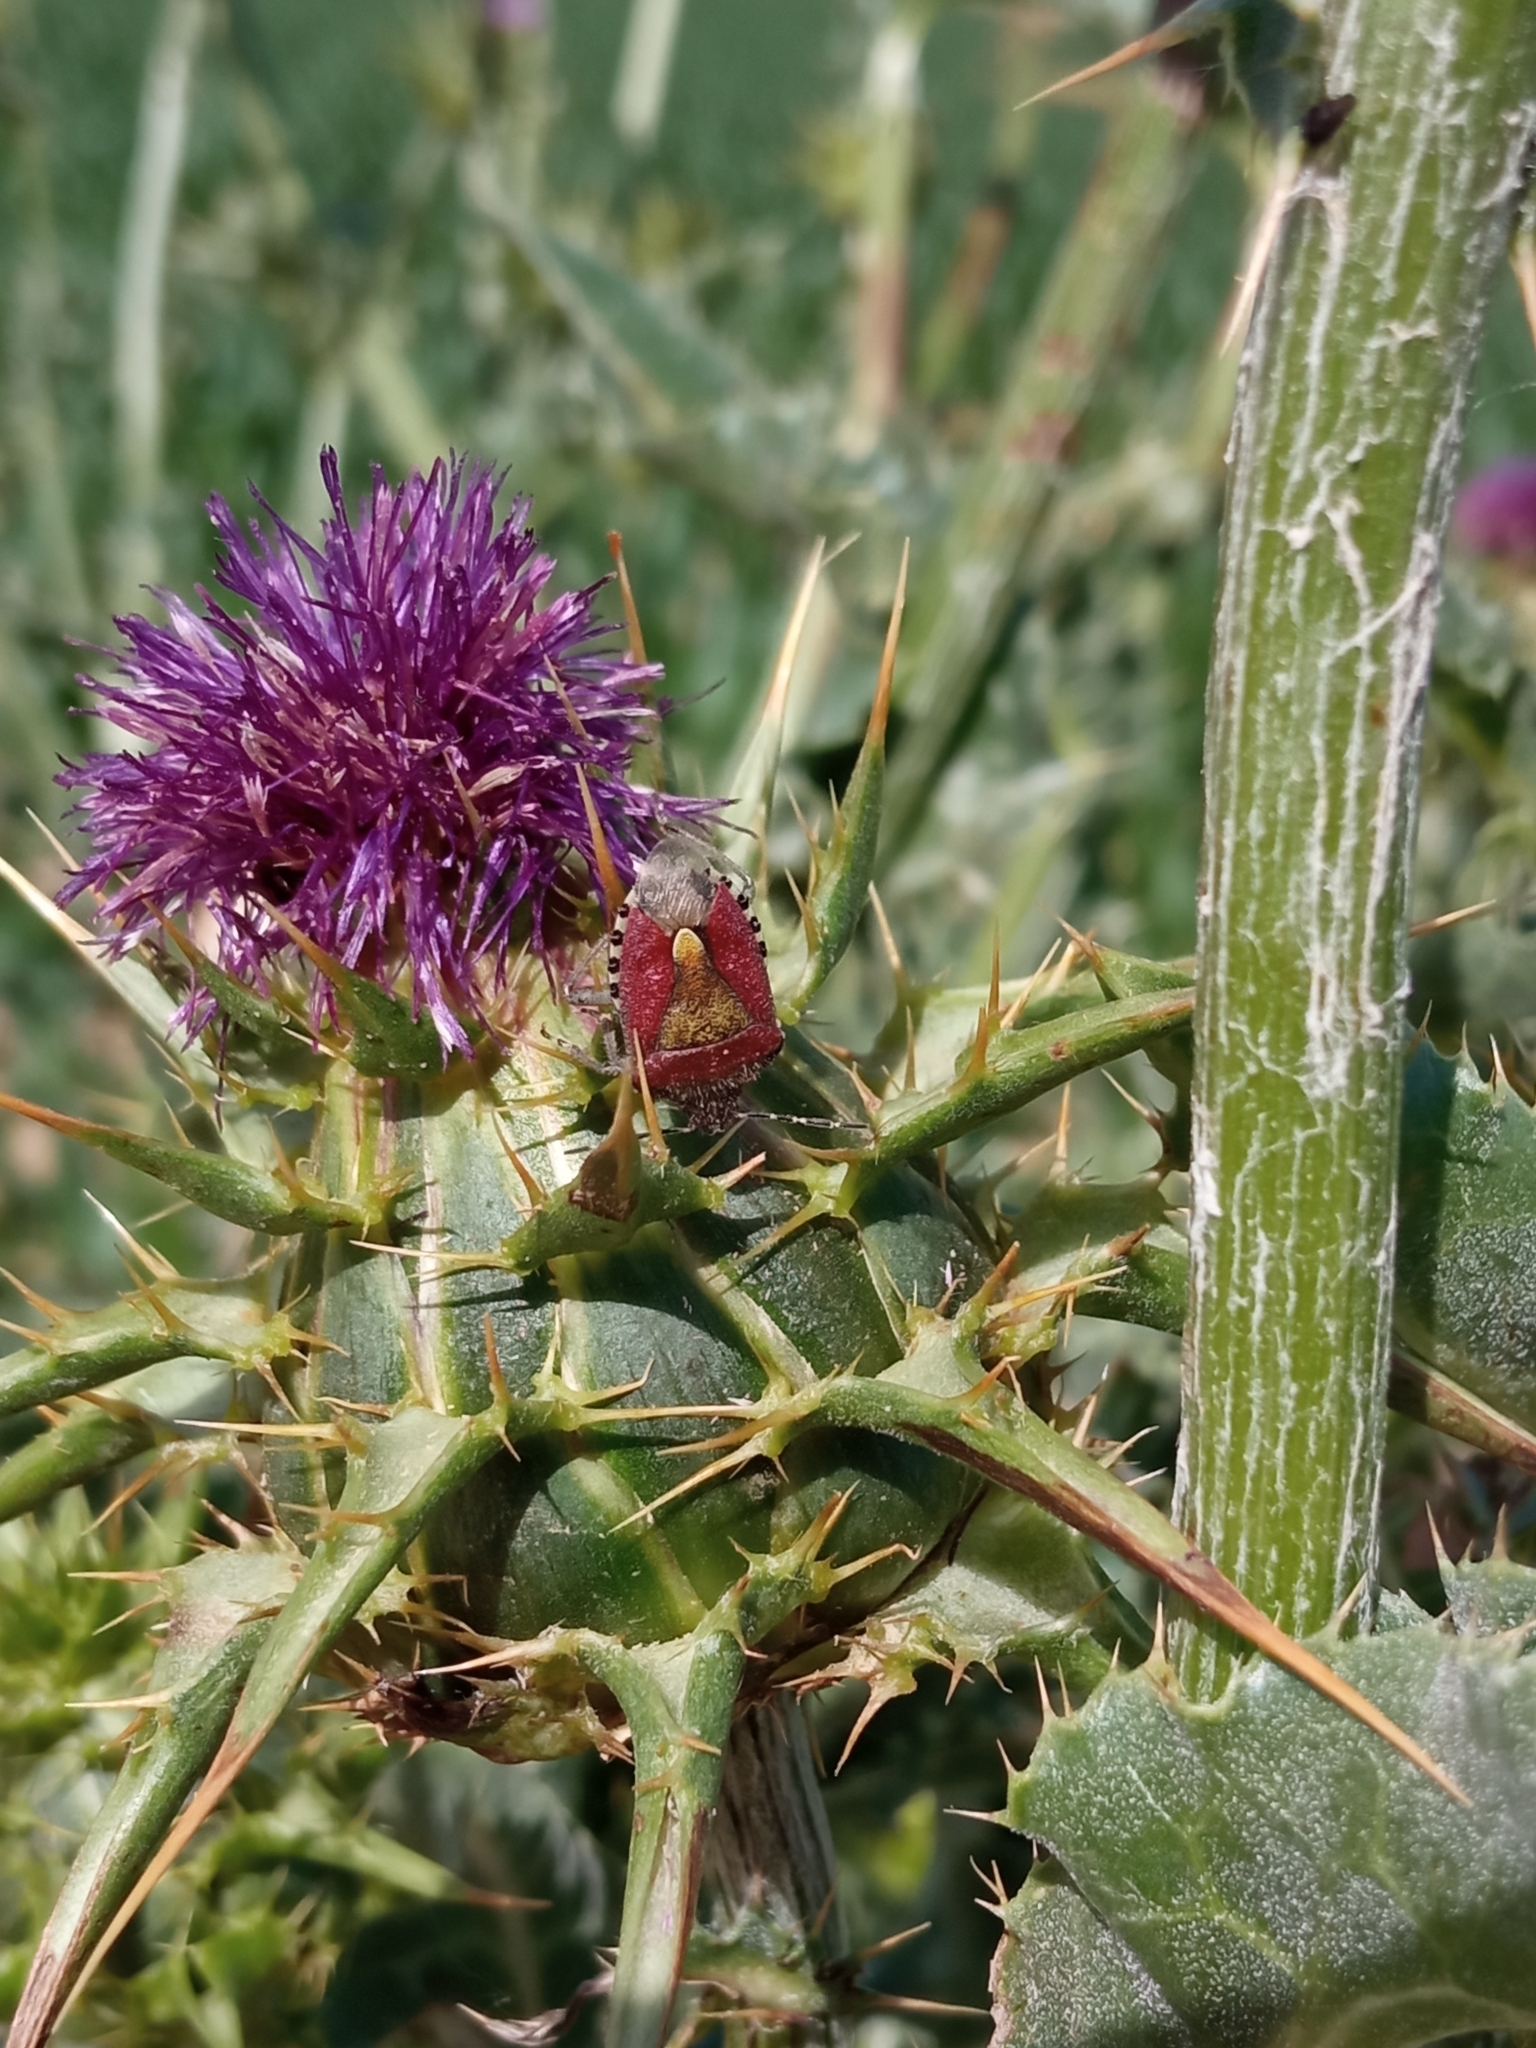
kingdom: Animalia
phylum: Arthropoda
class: Insecta
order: Hemiptera
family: Pentatomidae
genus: Dolycoris
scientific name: Dolycoris baccarum
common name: Sloe bug
